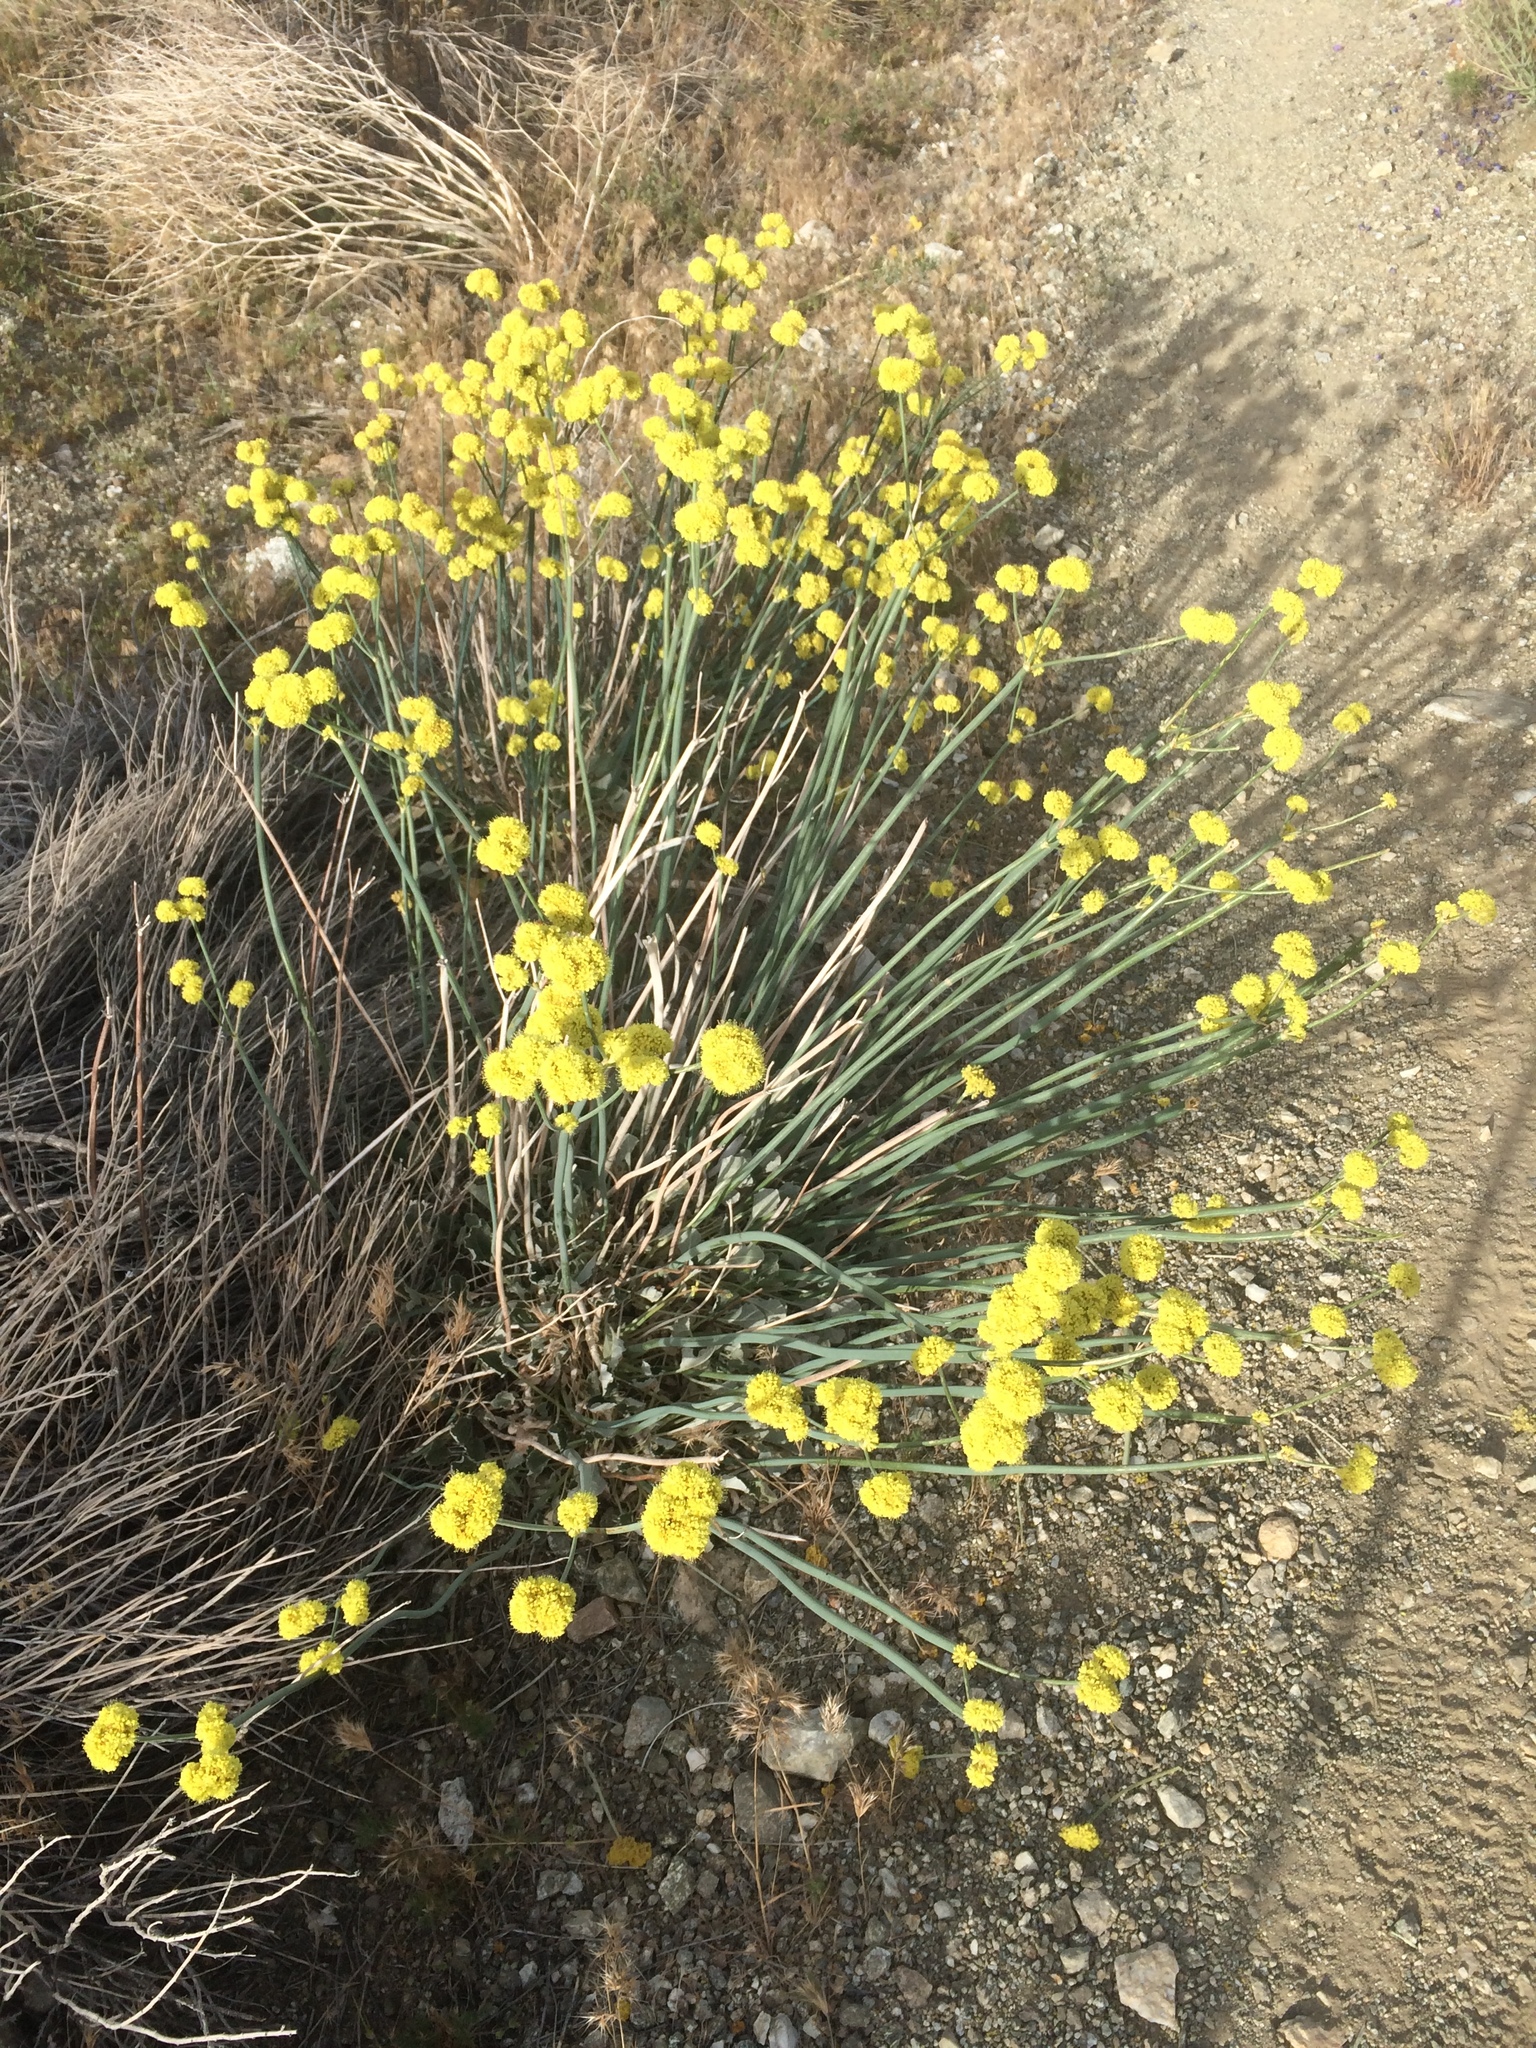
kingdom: Plantae
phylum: Tracheophyta
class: Magnoliopsida
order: Caryophyllales
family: Polygonaceae
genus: Eriogonum
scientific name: Eriogonum nudum
